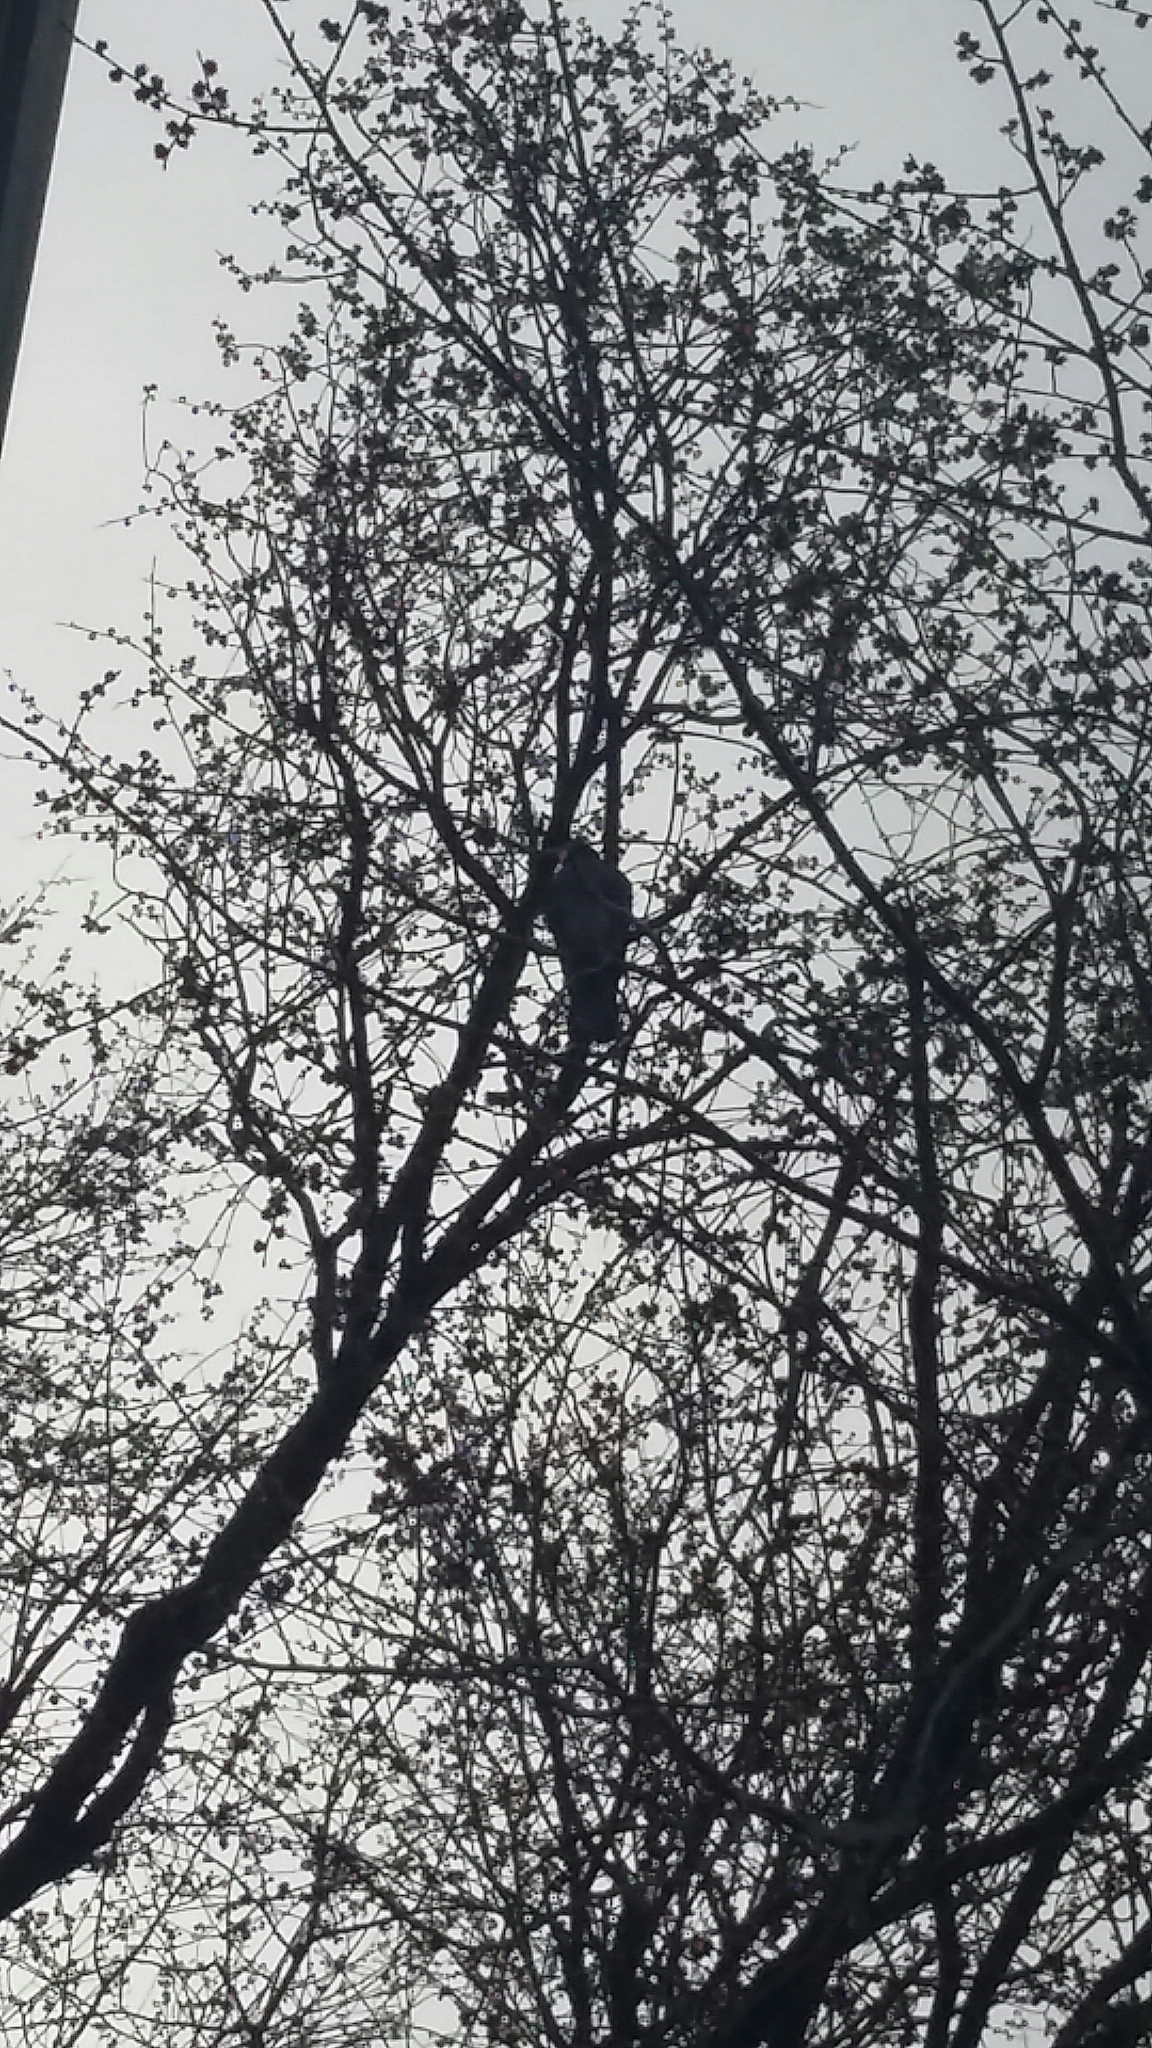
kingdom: Animalia
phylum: Chordata
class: Aves
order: Falconiformes
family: Falconidae
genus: Falco
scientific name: Falco novaeseelandiae
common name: New zealand falcon
